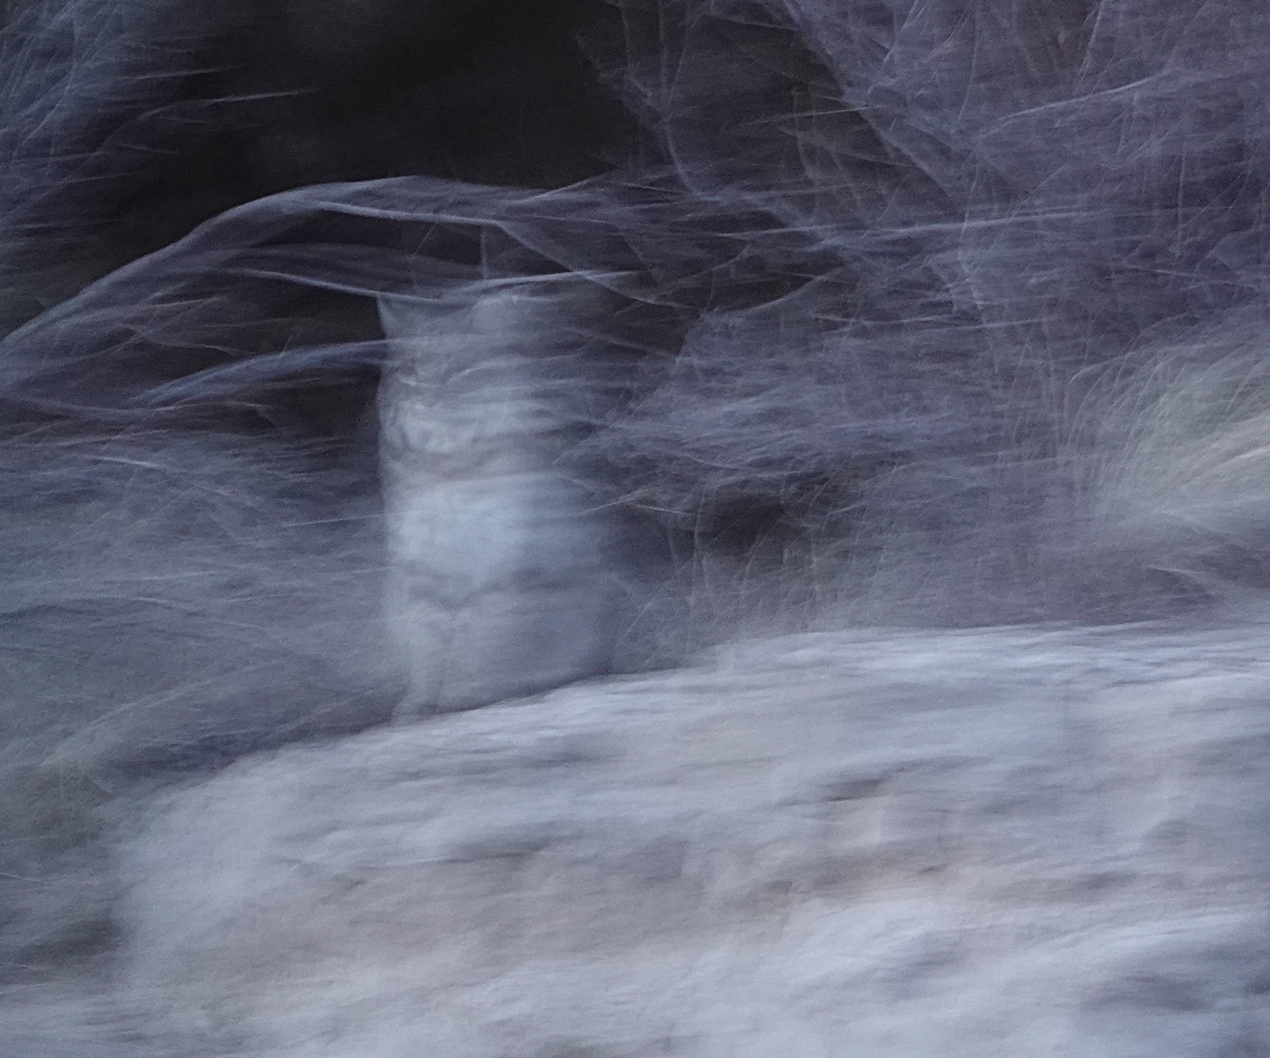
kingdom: Animalia
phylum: Chordata
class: Mammalia
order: Carnivora
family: Felidae
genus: Lynx
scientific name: Lynx rufus
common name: Bobcat
